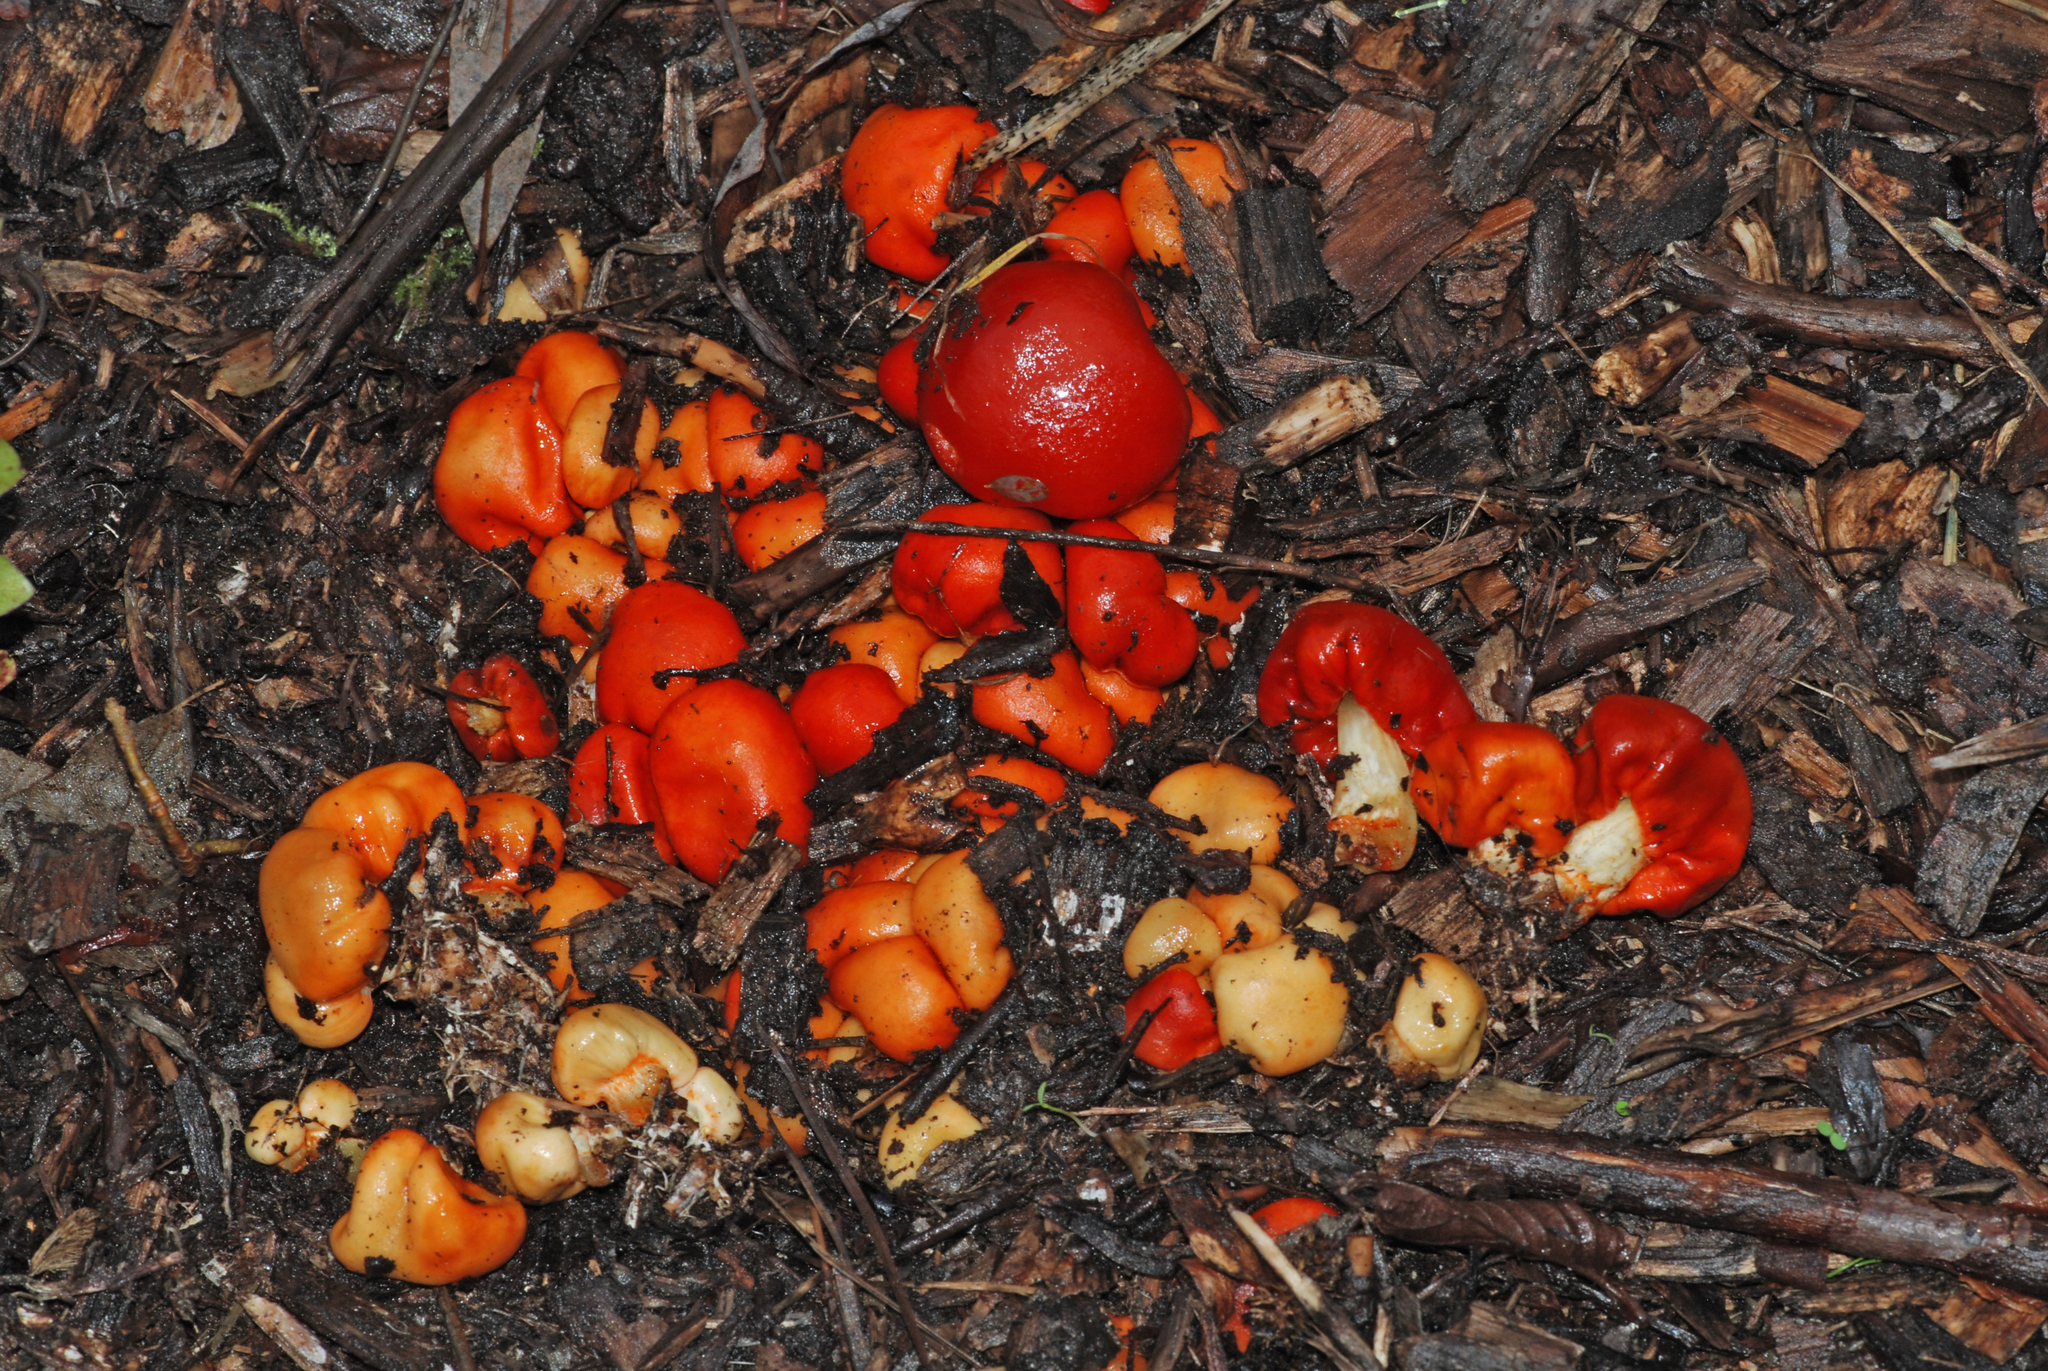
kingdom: Fungi
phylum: Basidiomycota
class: Agaricomycetes
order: Agaricales
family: Strophariaceae
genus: Leratiomyces
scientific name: Leratiomyces erythrocephalus
